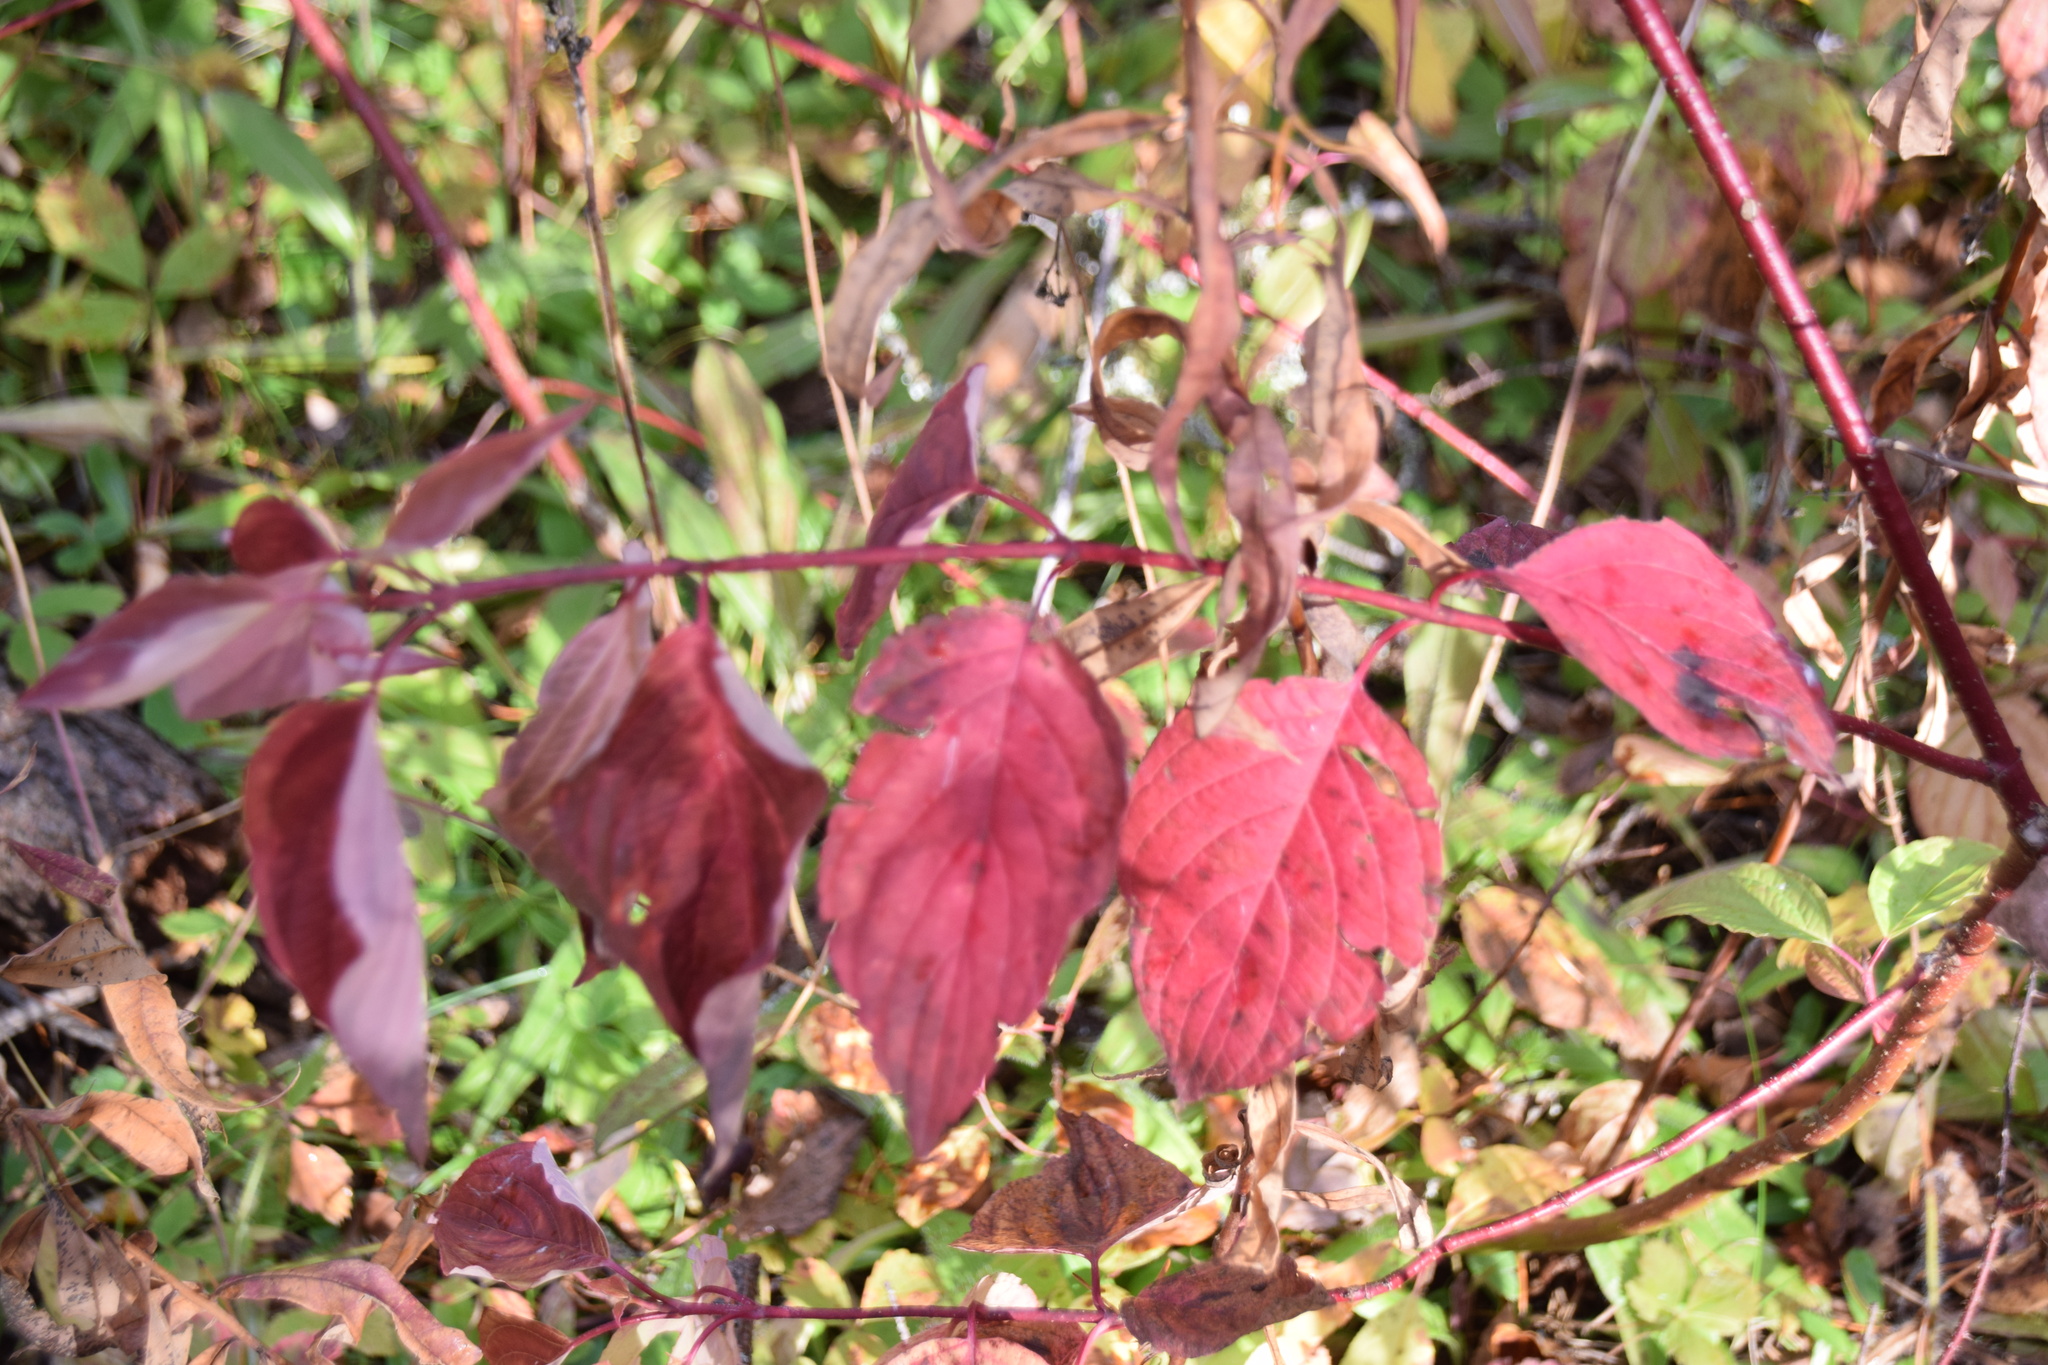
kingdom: Plantae
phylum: Tracheophyta
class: Magnoliopsida
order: Cornales
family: Cornaceae
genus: Cornus
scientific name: Cornus sericea
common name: Red-osier dogwood
